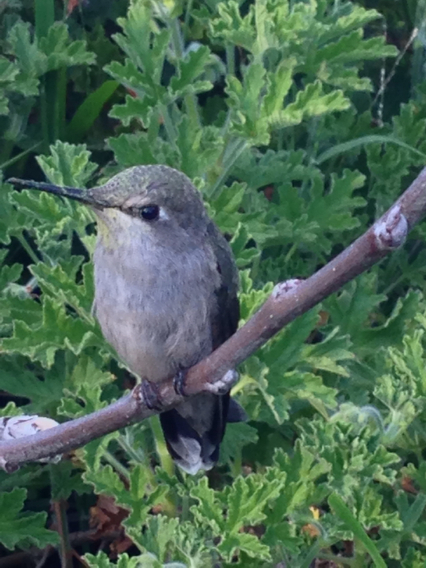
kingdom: Animalia
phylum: Chordata
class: Aves
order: Apodiformes
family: Trochilidae
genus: Calypte
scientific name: Calypte anna
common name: Anna's hummingbird
